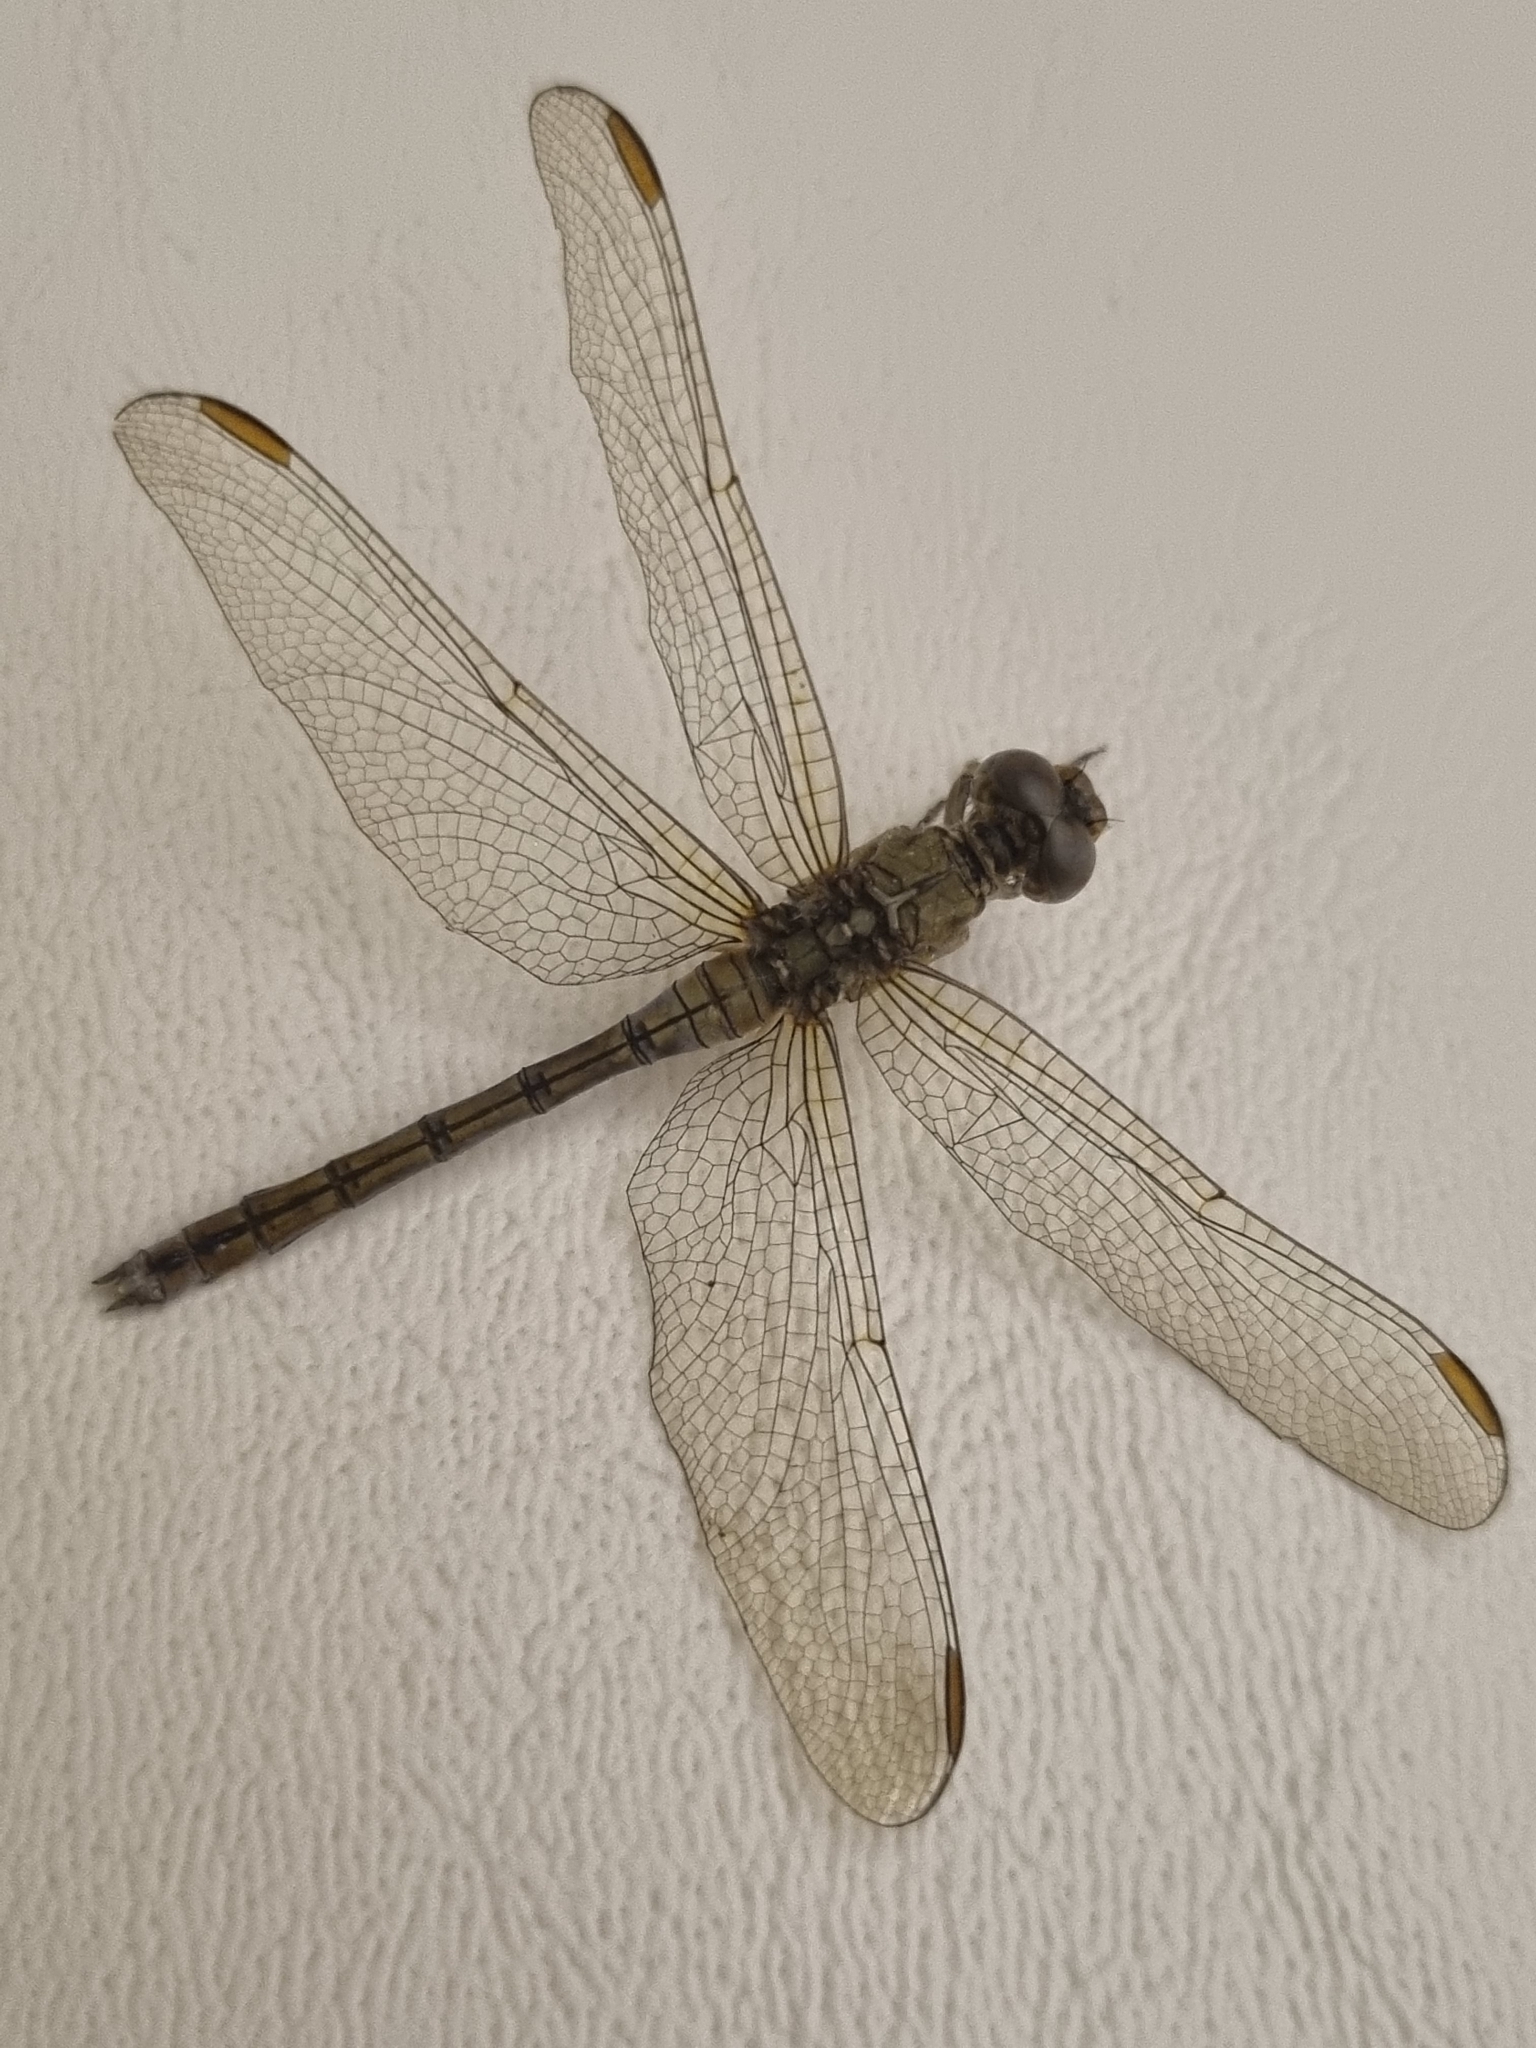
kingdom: Animalia
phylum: Arthropoda
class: Insecta
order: Odonata
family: Libellulidae
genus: Orthetrum
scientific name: Orthetrum coerulescens
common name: Keeled skimmer
